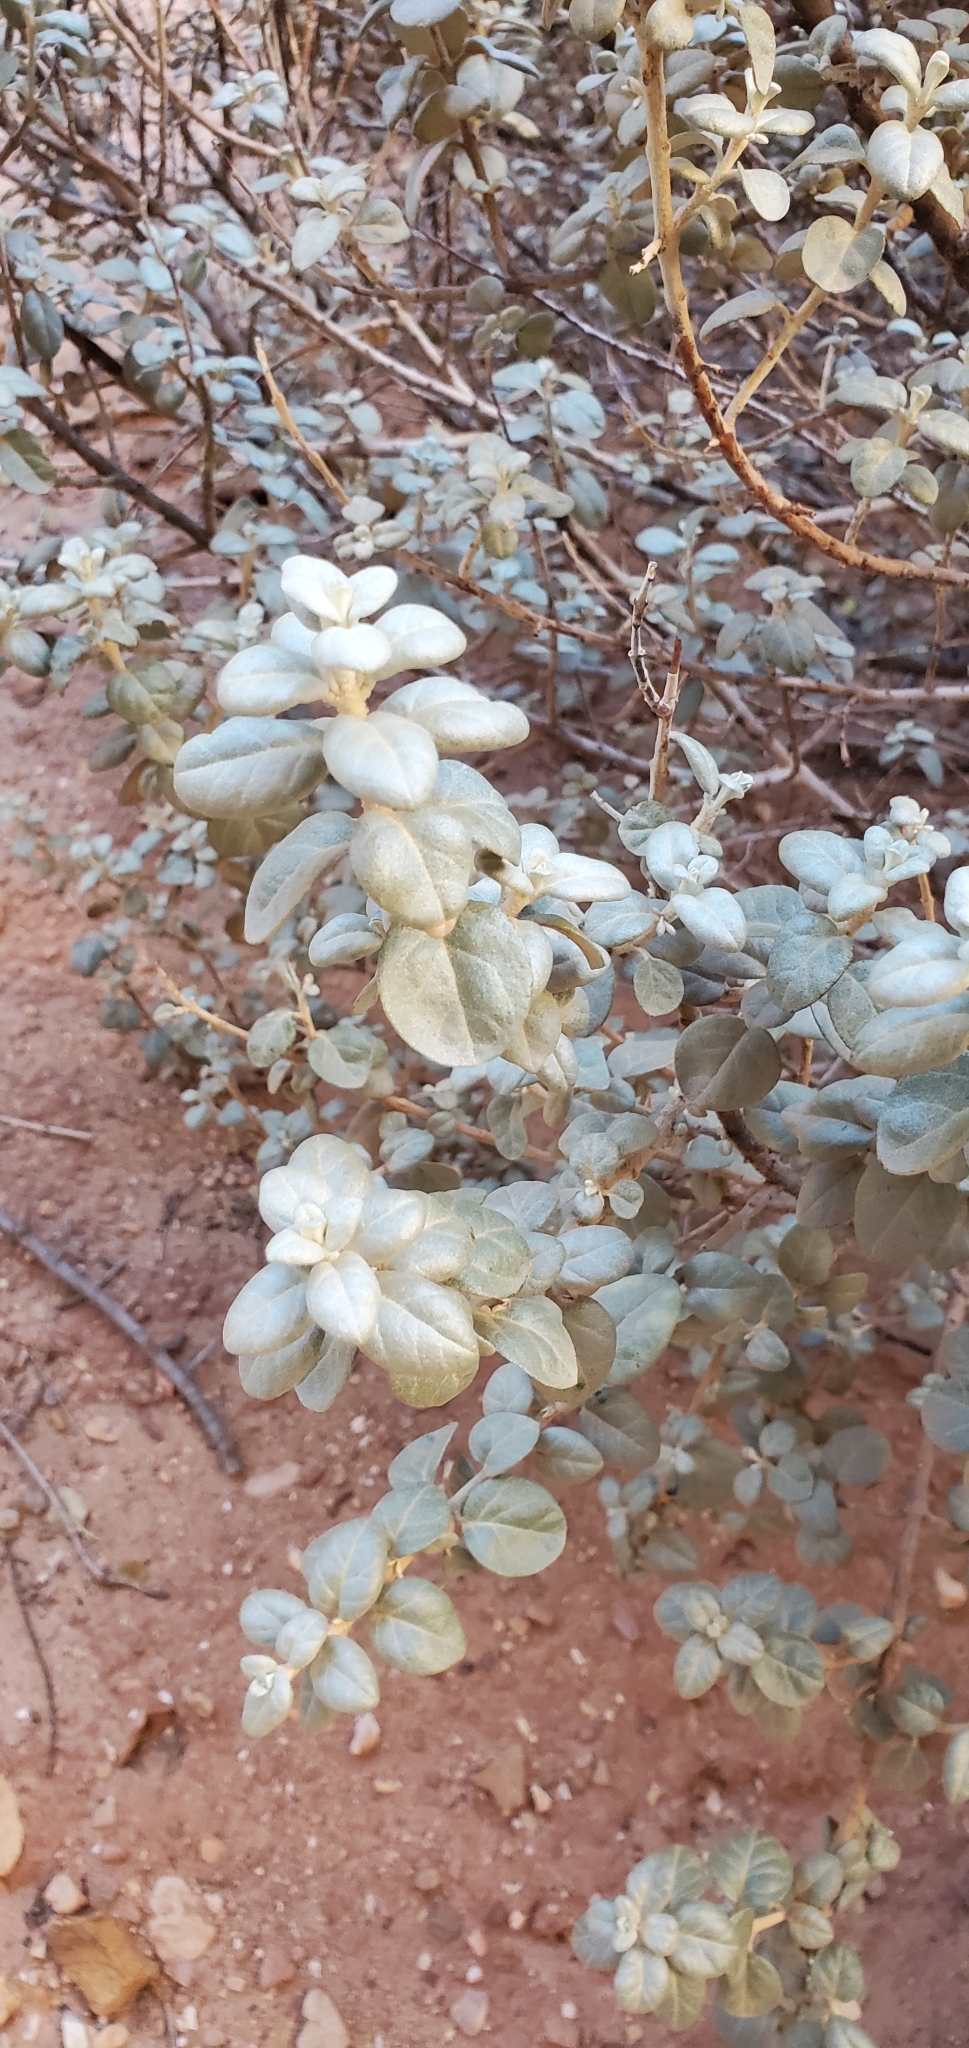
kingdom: Plantae
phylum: Tracheophyta
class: Magnoliopsida
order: Rosales
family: Elaeagnaceae
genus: Shepherdia
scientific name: Shepherdia rotundifolia
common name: Silverscale
